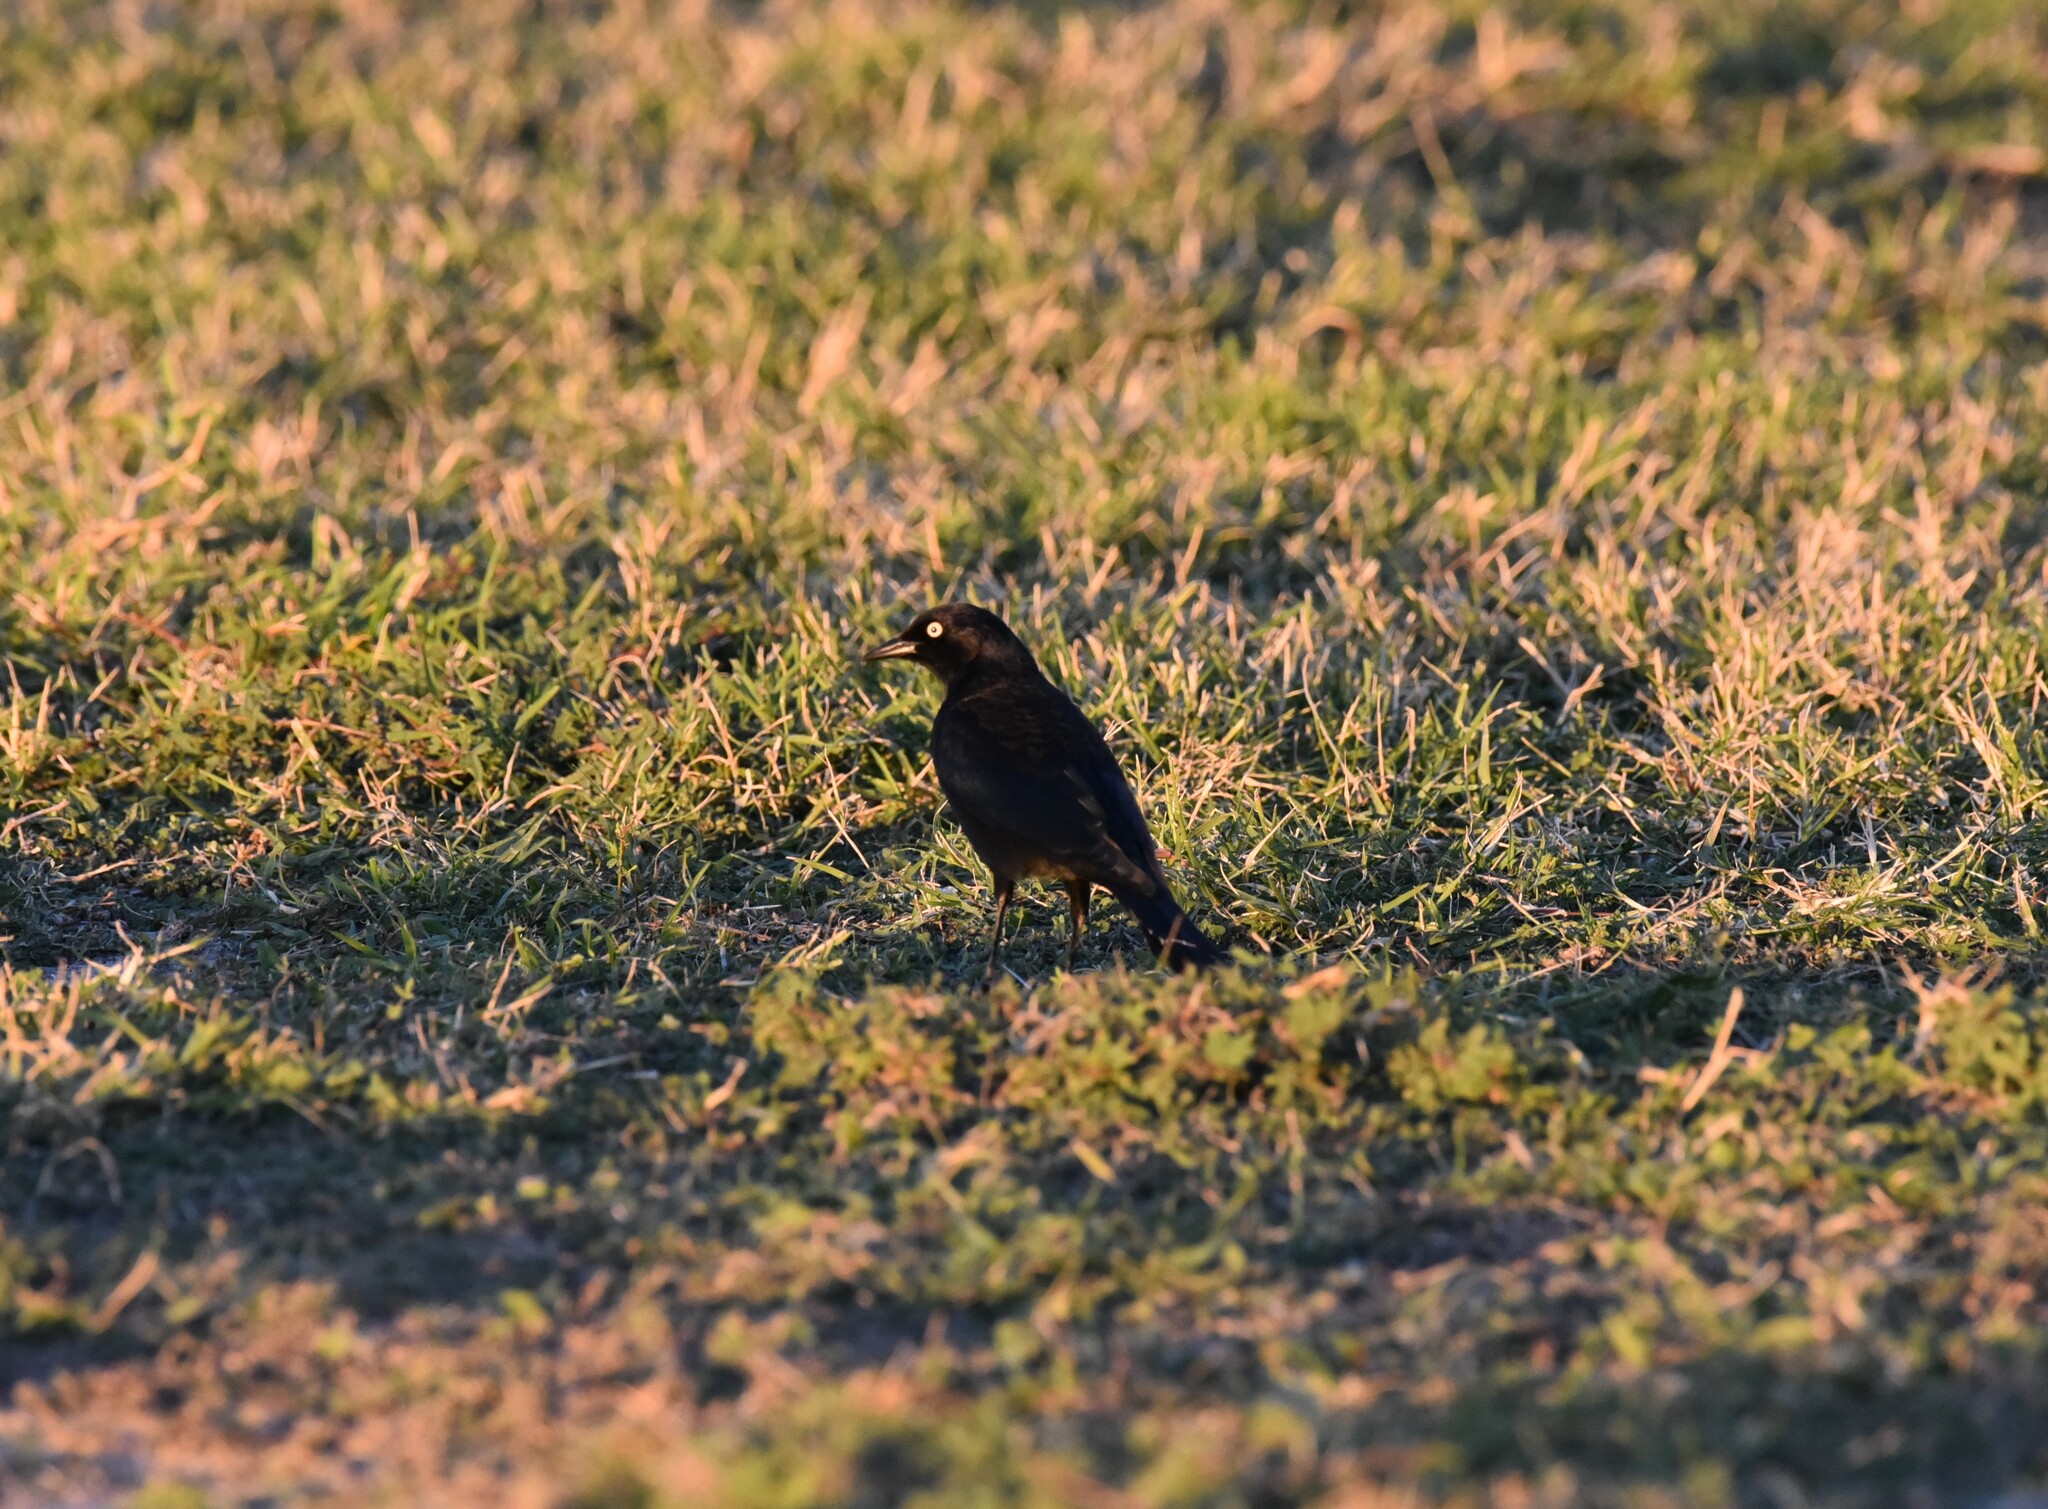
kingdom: Animalia
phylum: Chordata
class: Aves
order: Passeriformes
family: Icteridae
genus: Euphagus
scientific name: Euphagus cyanocephalus
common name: Brewer's blackbird
